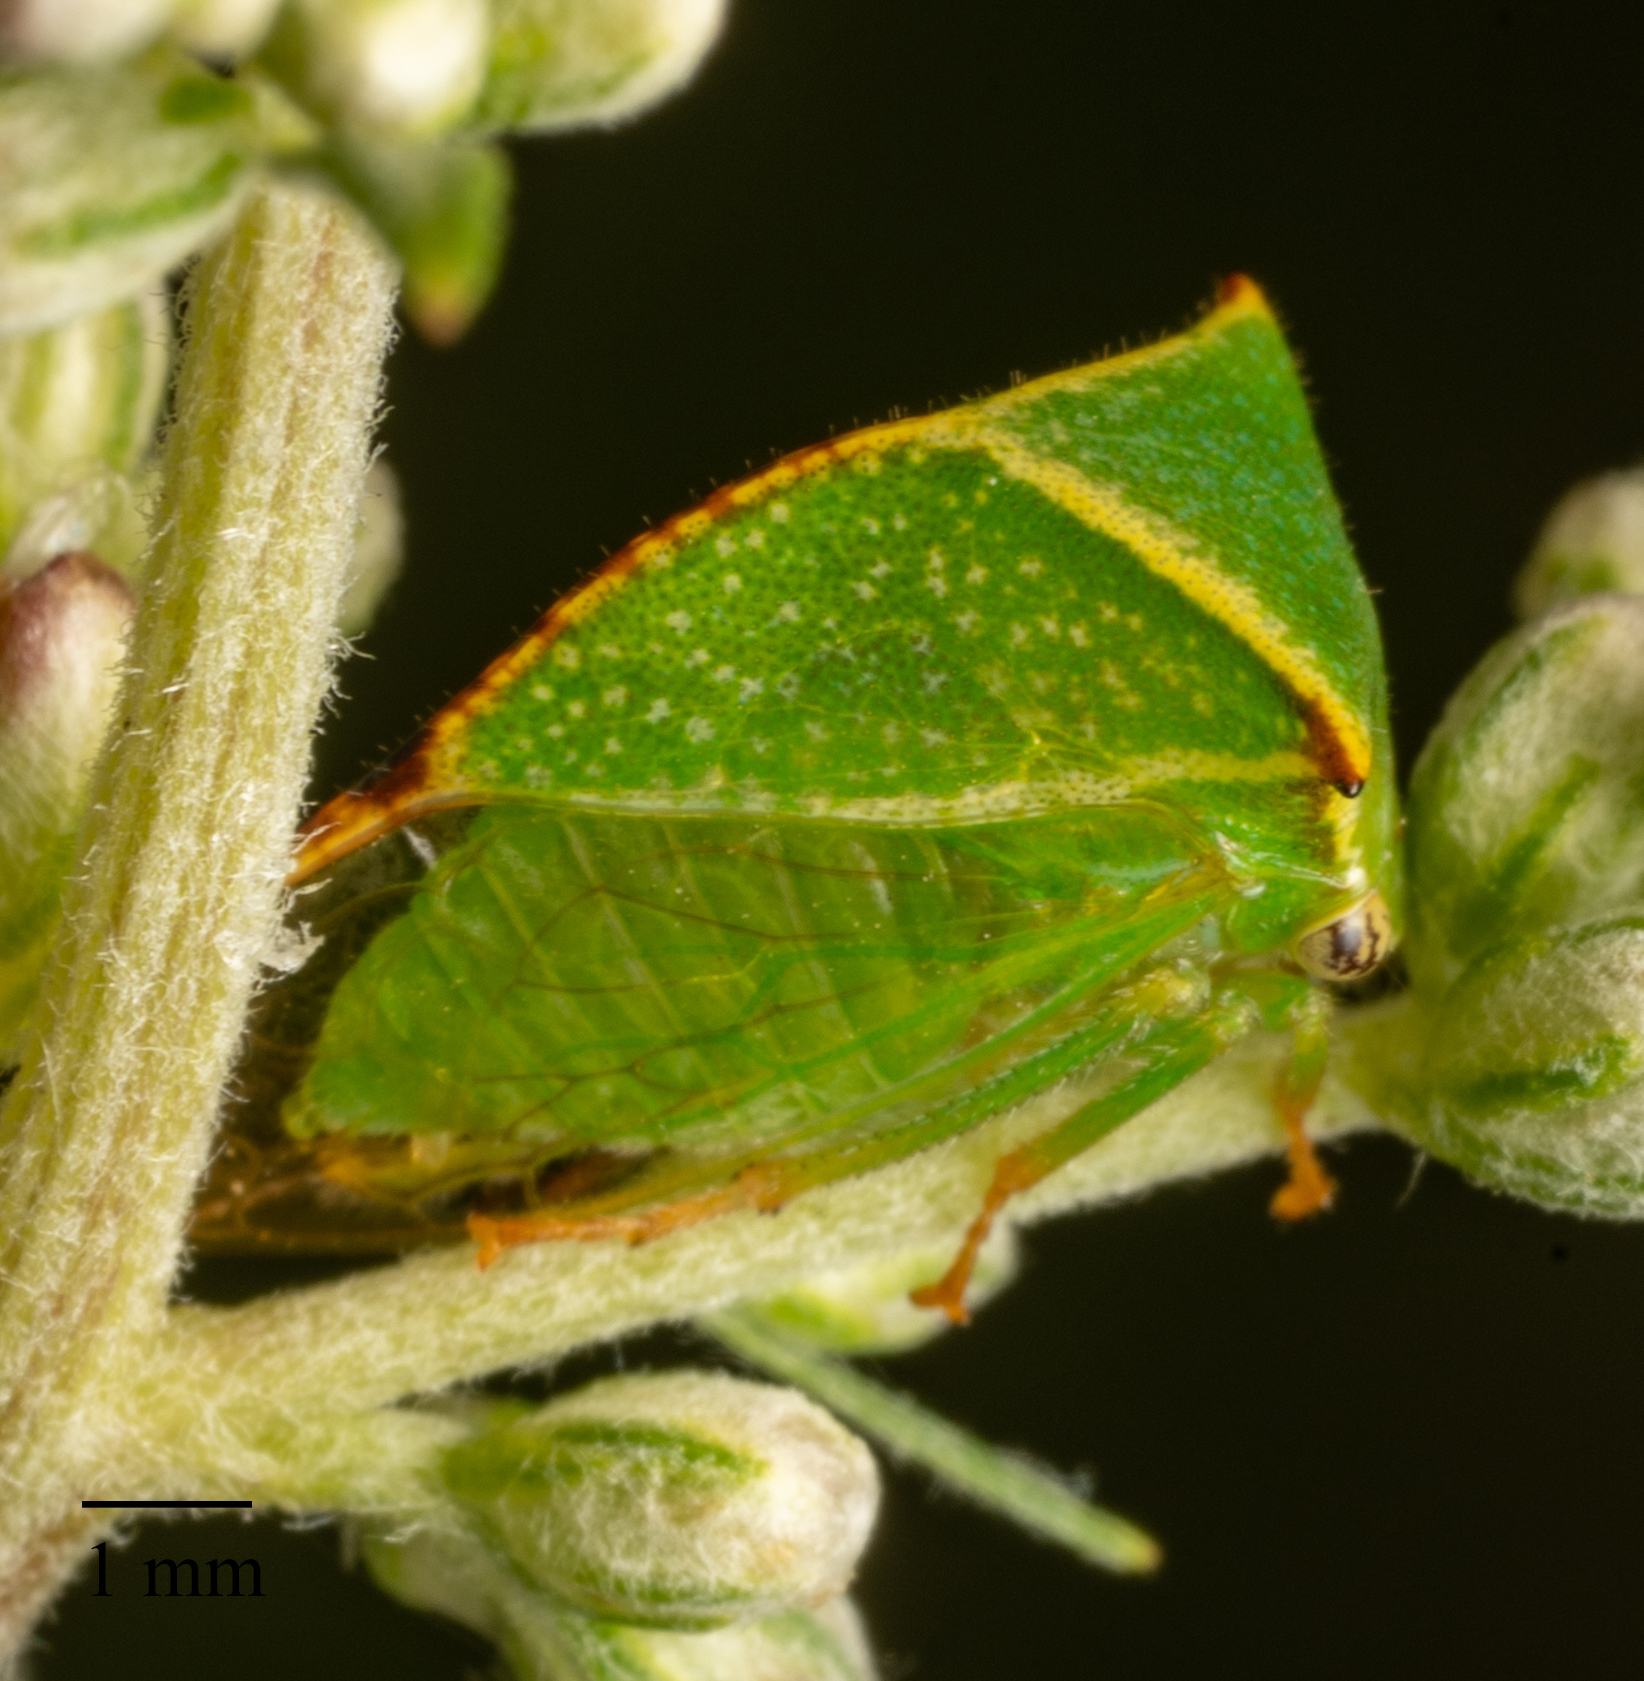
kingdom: Animalia
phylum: Arthropoda
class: Insecta
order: Hemiptera
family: Membracidae
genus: Stictocephala
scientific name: Stictocephala bisonia
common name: American buffalo treehopper
